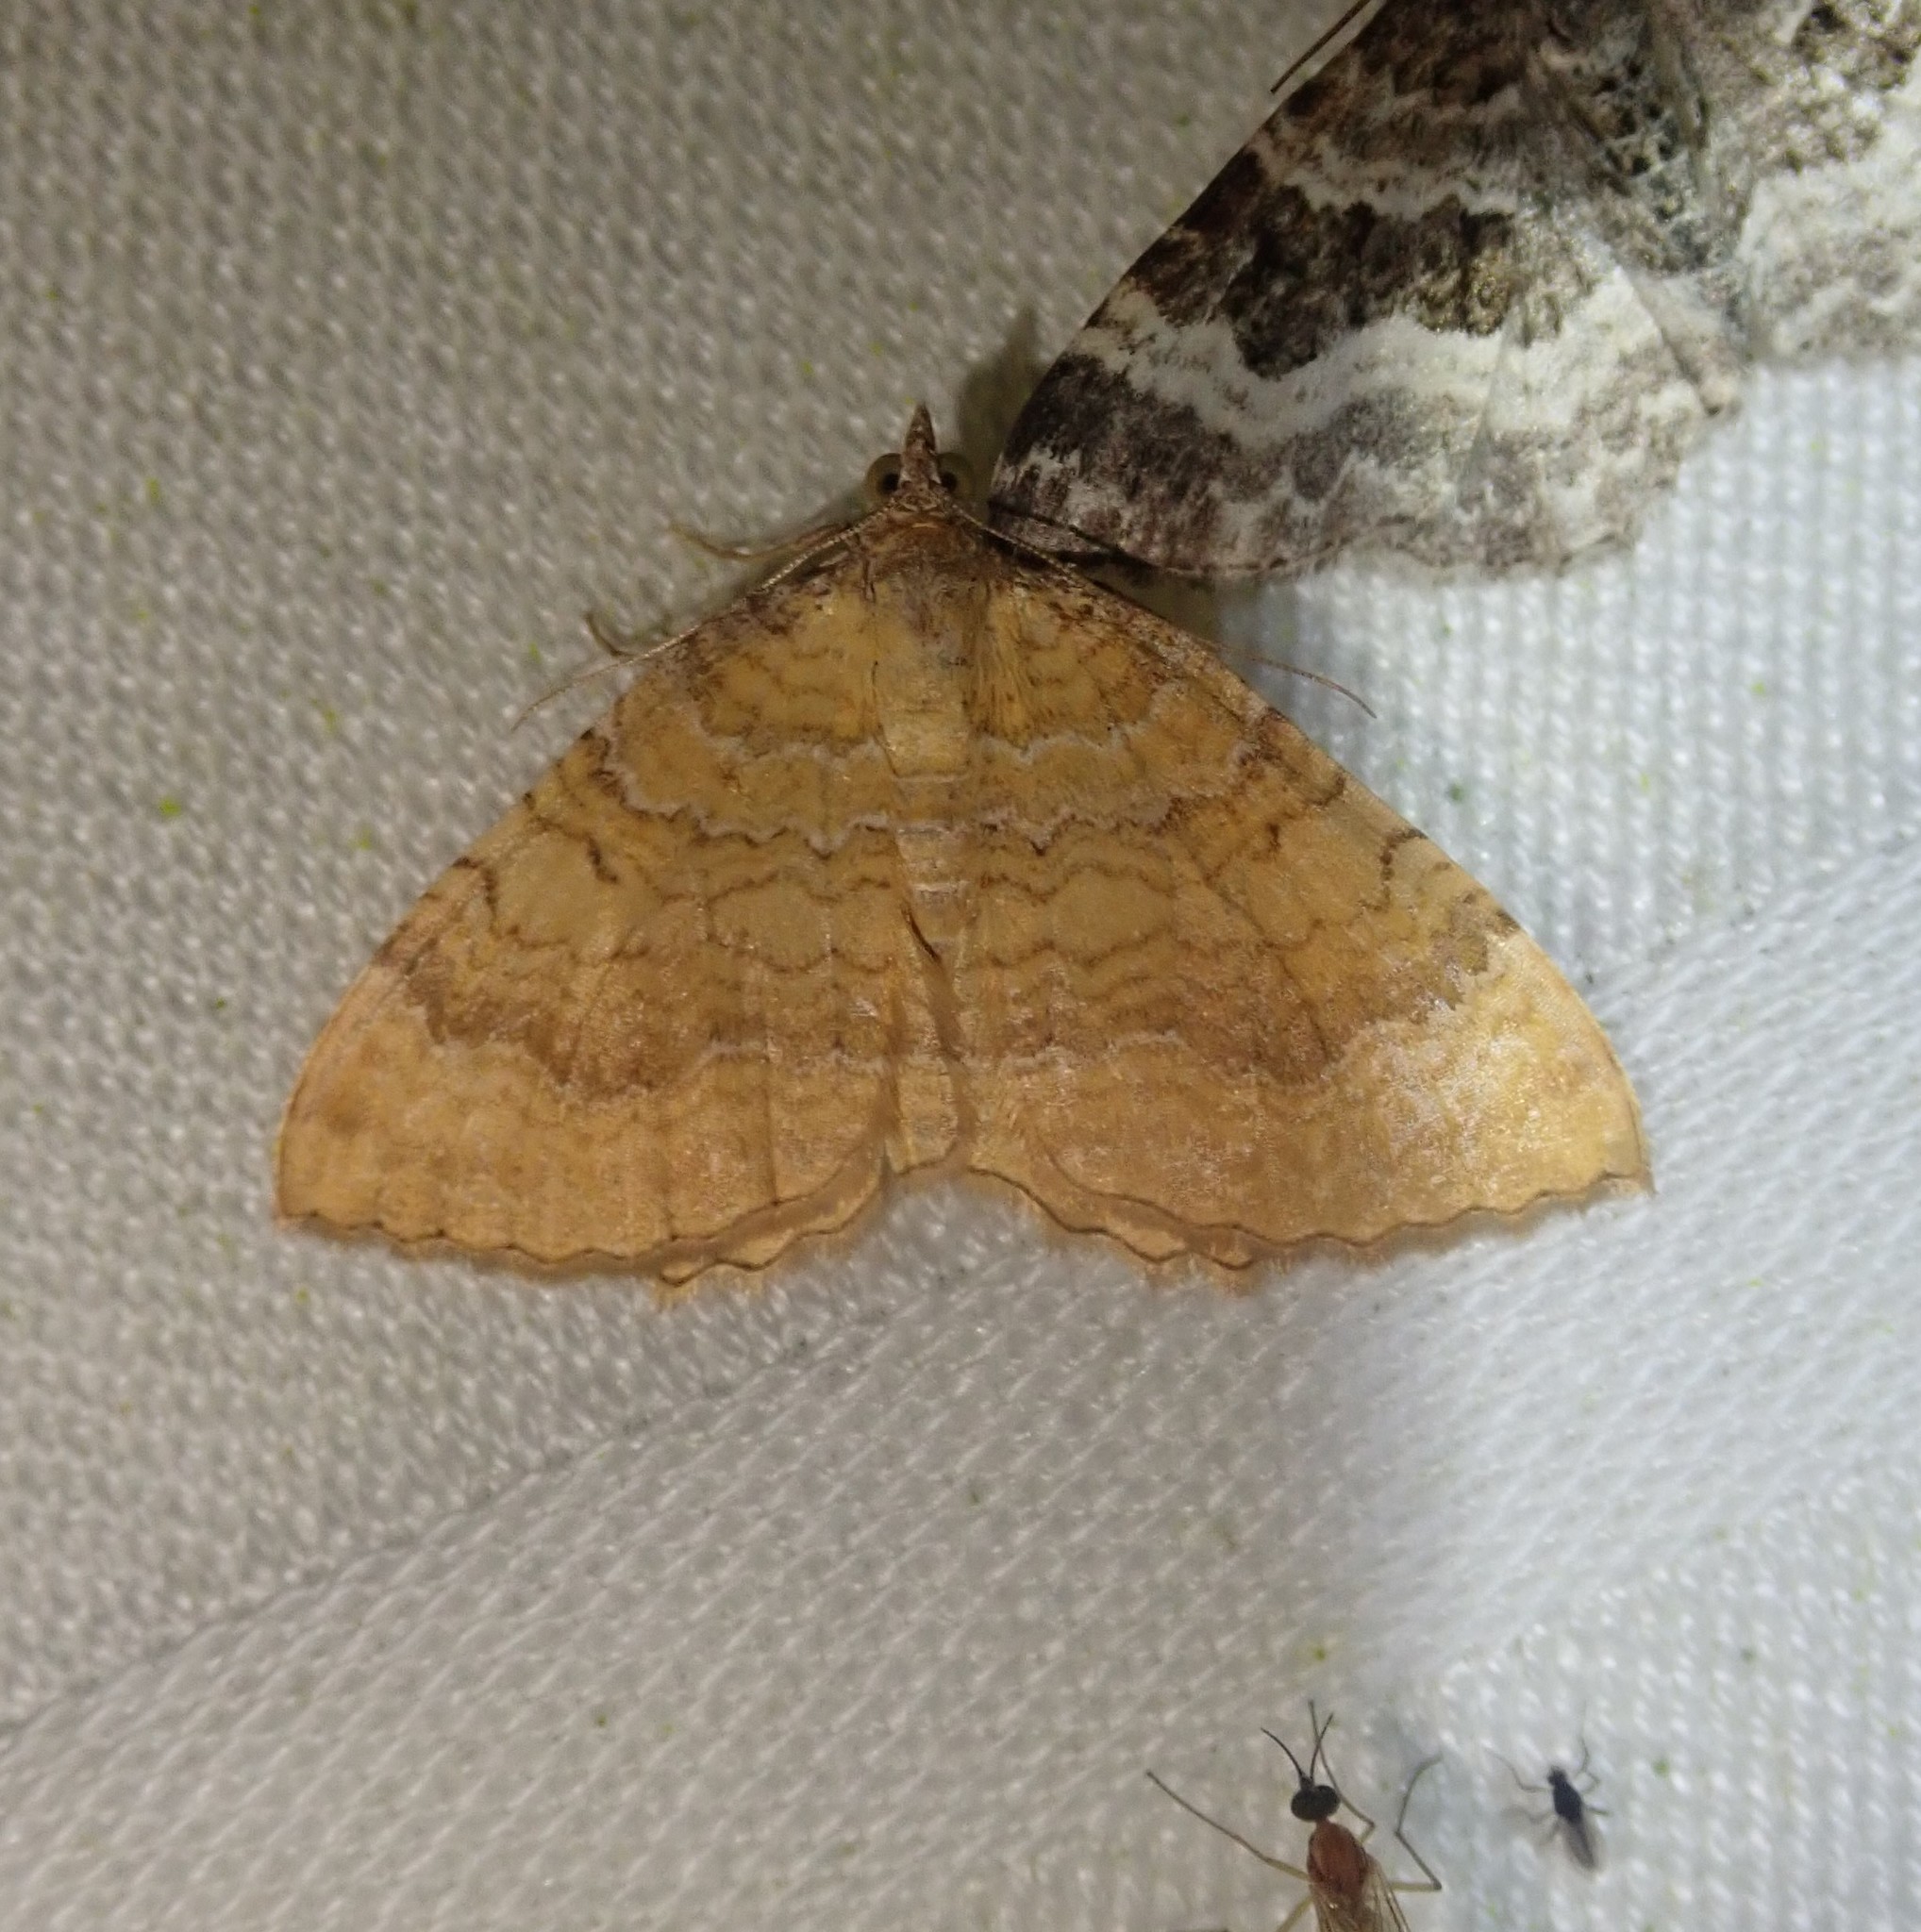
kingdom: Animalia
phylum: Arthropoda
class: Insecta
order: Lepidoptera
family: Geometridae
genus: Camptogramma
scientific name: Camptogramma bilineata
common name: Yellow shell
